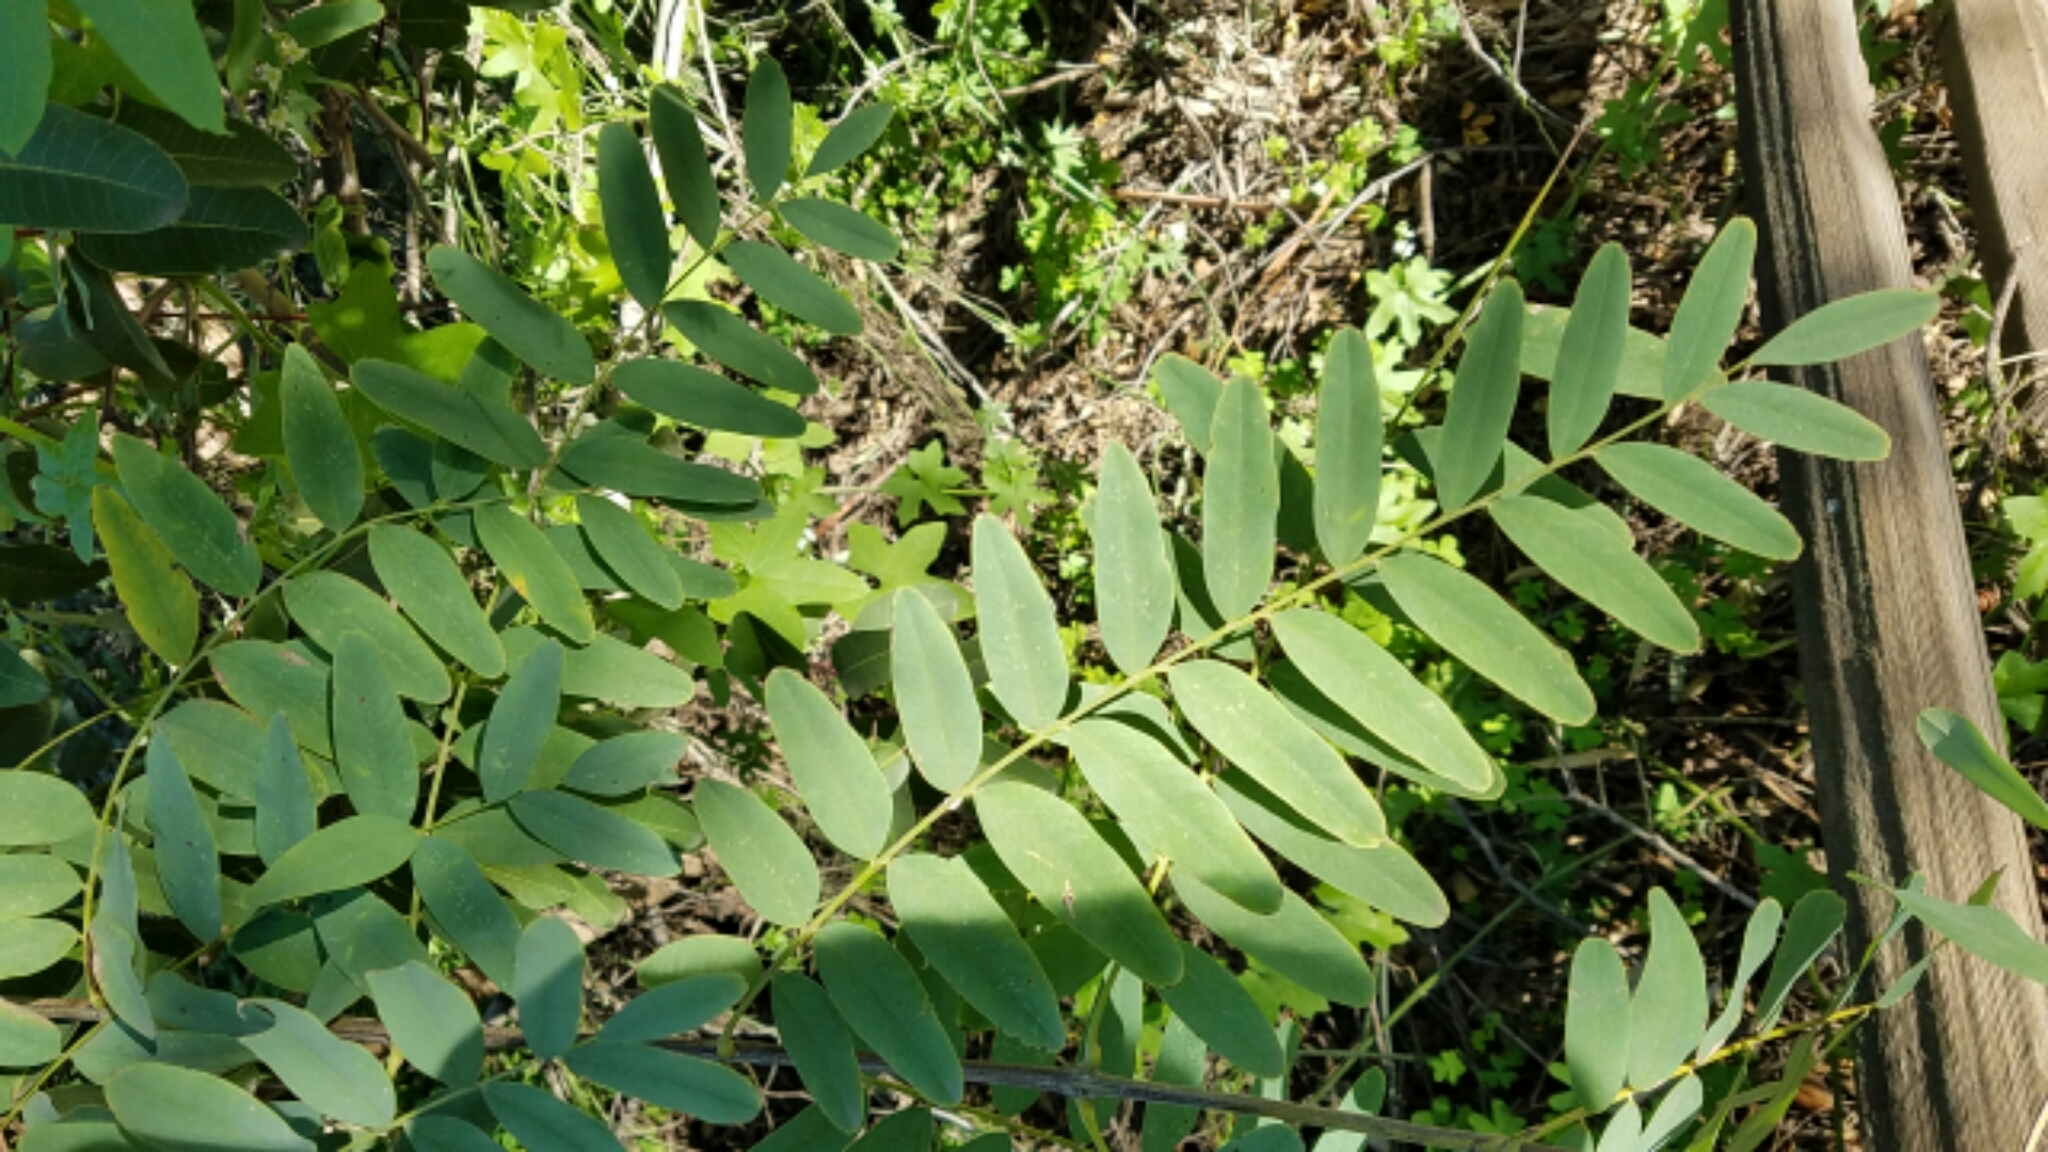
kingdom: Plantae
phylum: Tracheophyta
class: Magnoliopsida
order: Fabales
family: Fabaceae
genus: Amorpha
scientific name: Amorpha fruticosa
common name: False indigo
